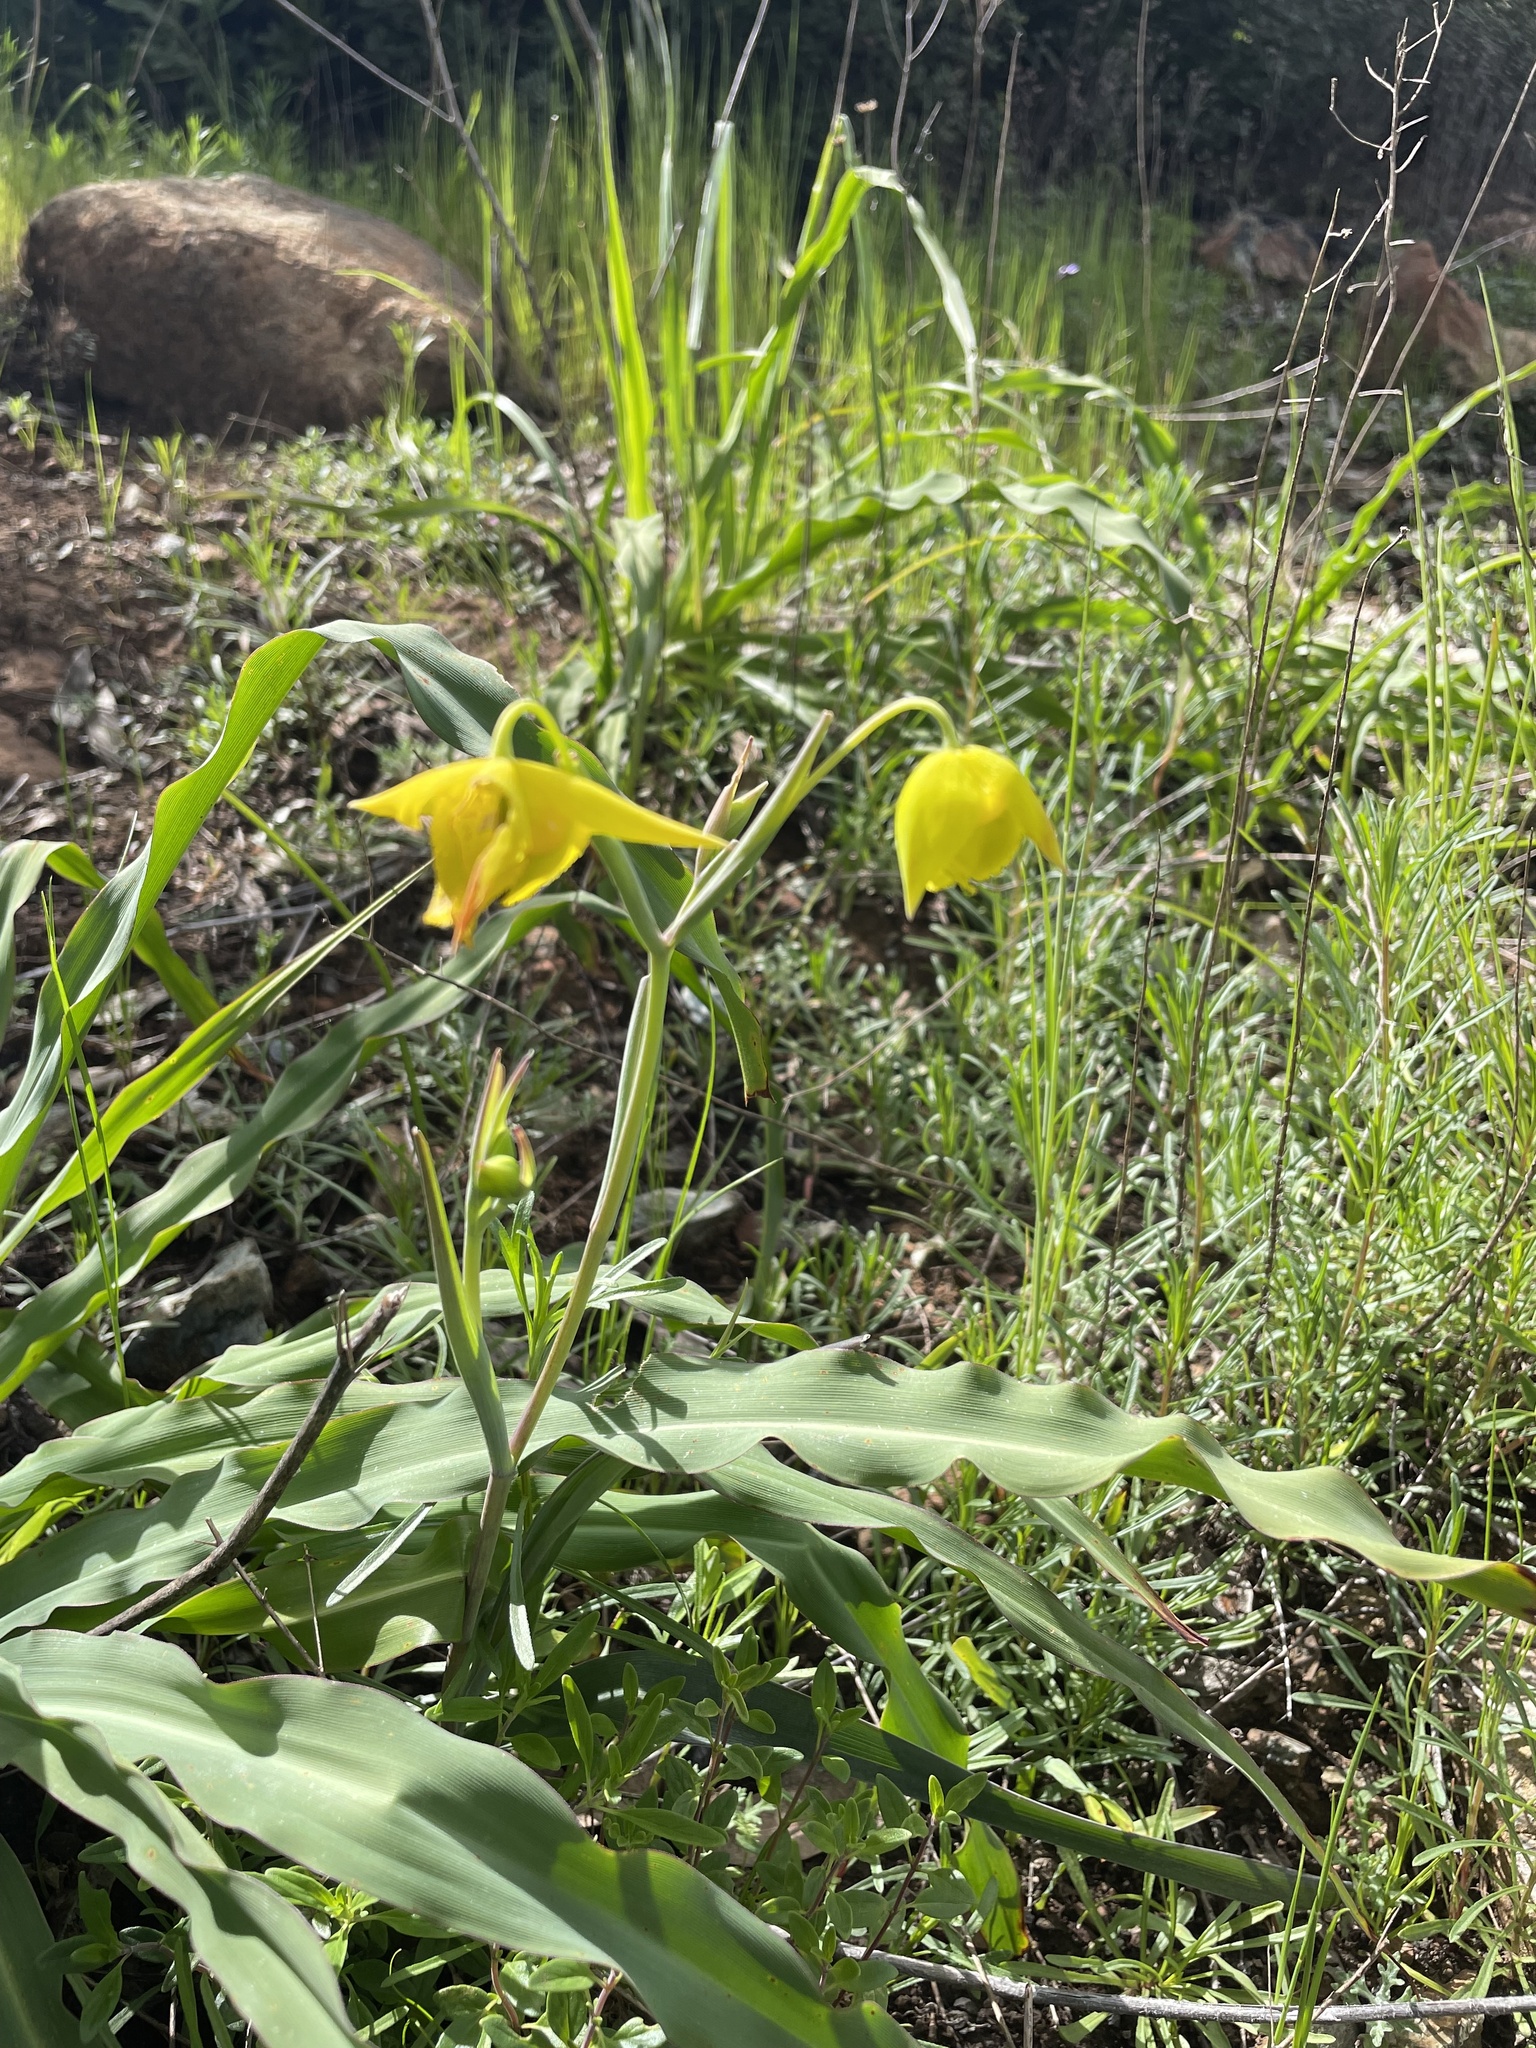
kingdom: Plantae
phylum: Tracheophyta
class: Liliopsida
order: Liliales
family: Liliaceae
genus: Calochortus
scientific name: Calochortus amabilis
